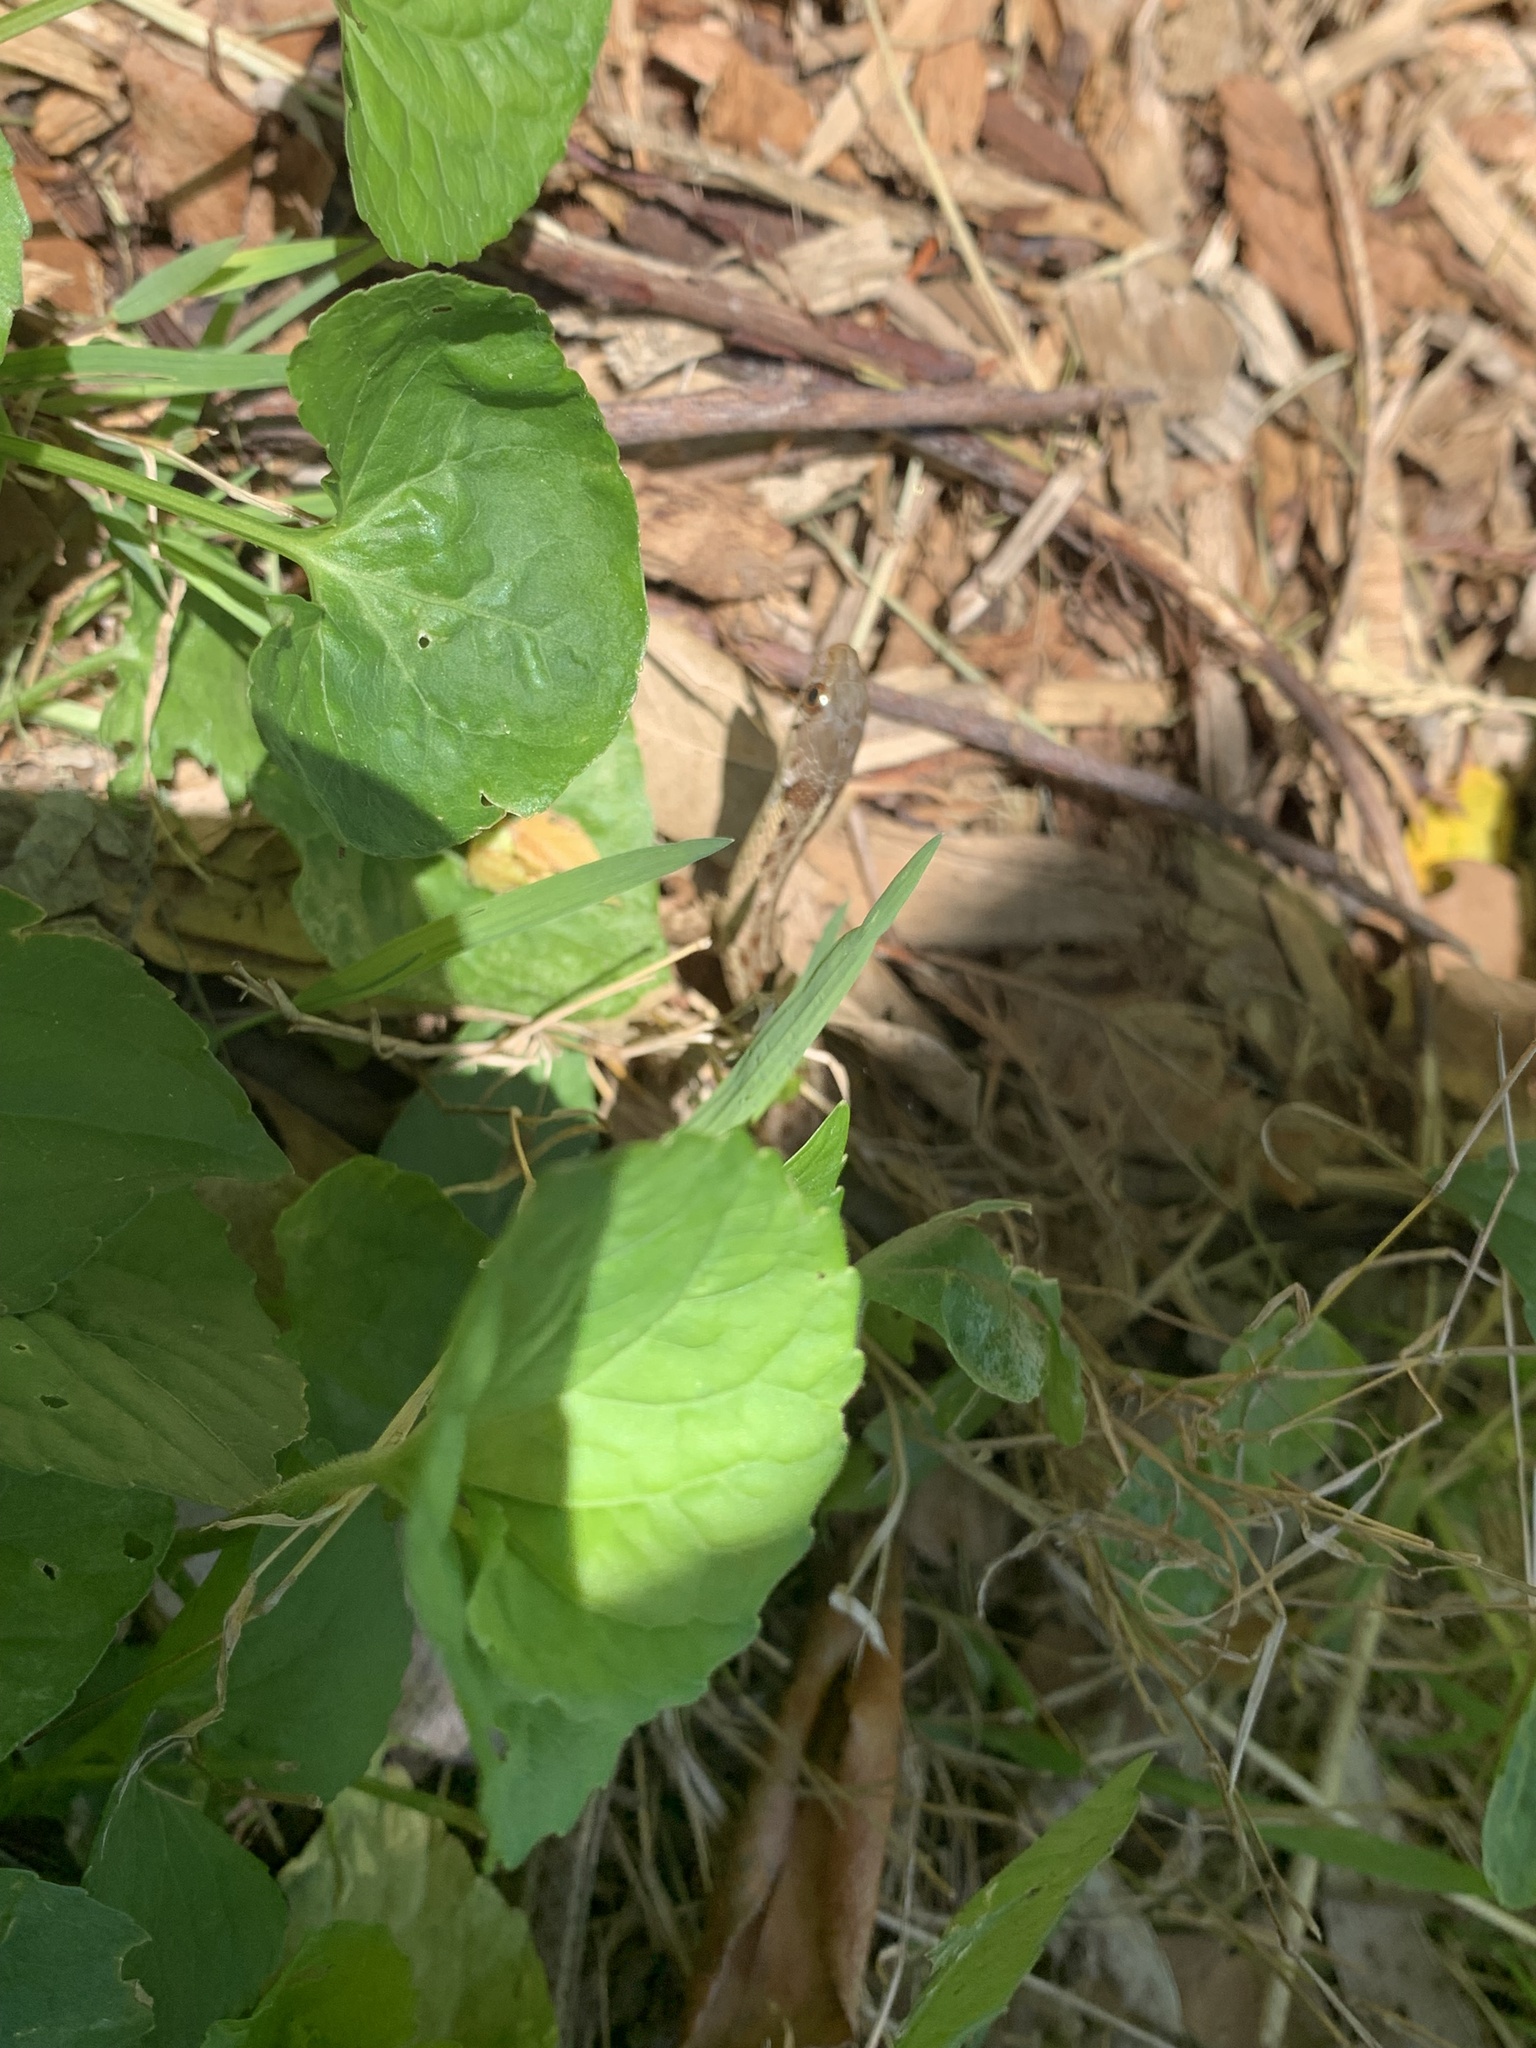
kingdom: Animalia
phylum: Chordata
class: Squamata
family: Colubridae
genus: Thamnophis
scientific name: Thamnophis sirtalis
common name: Common garter snake
